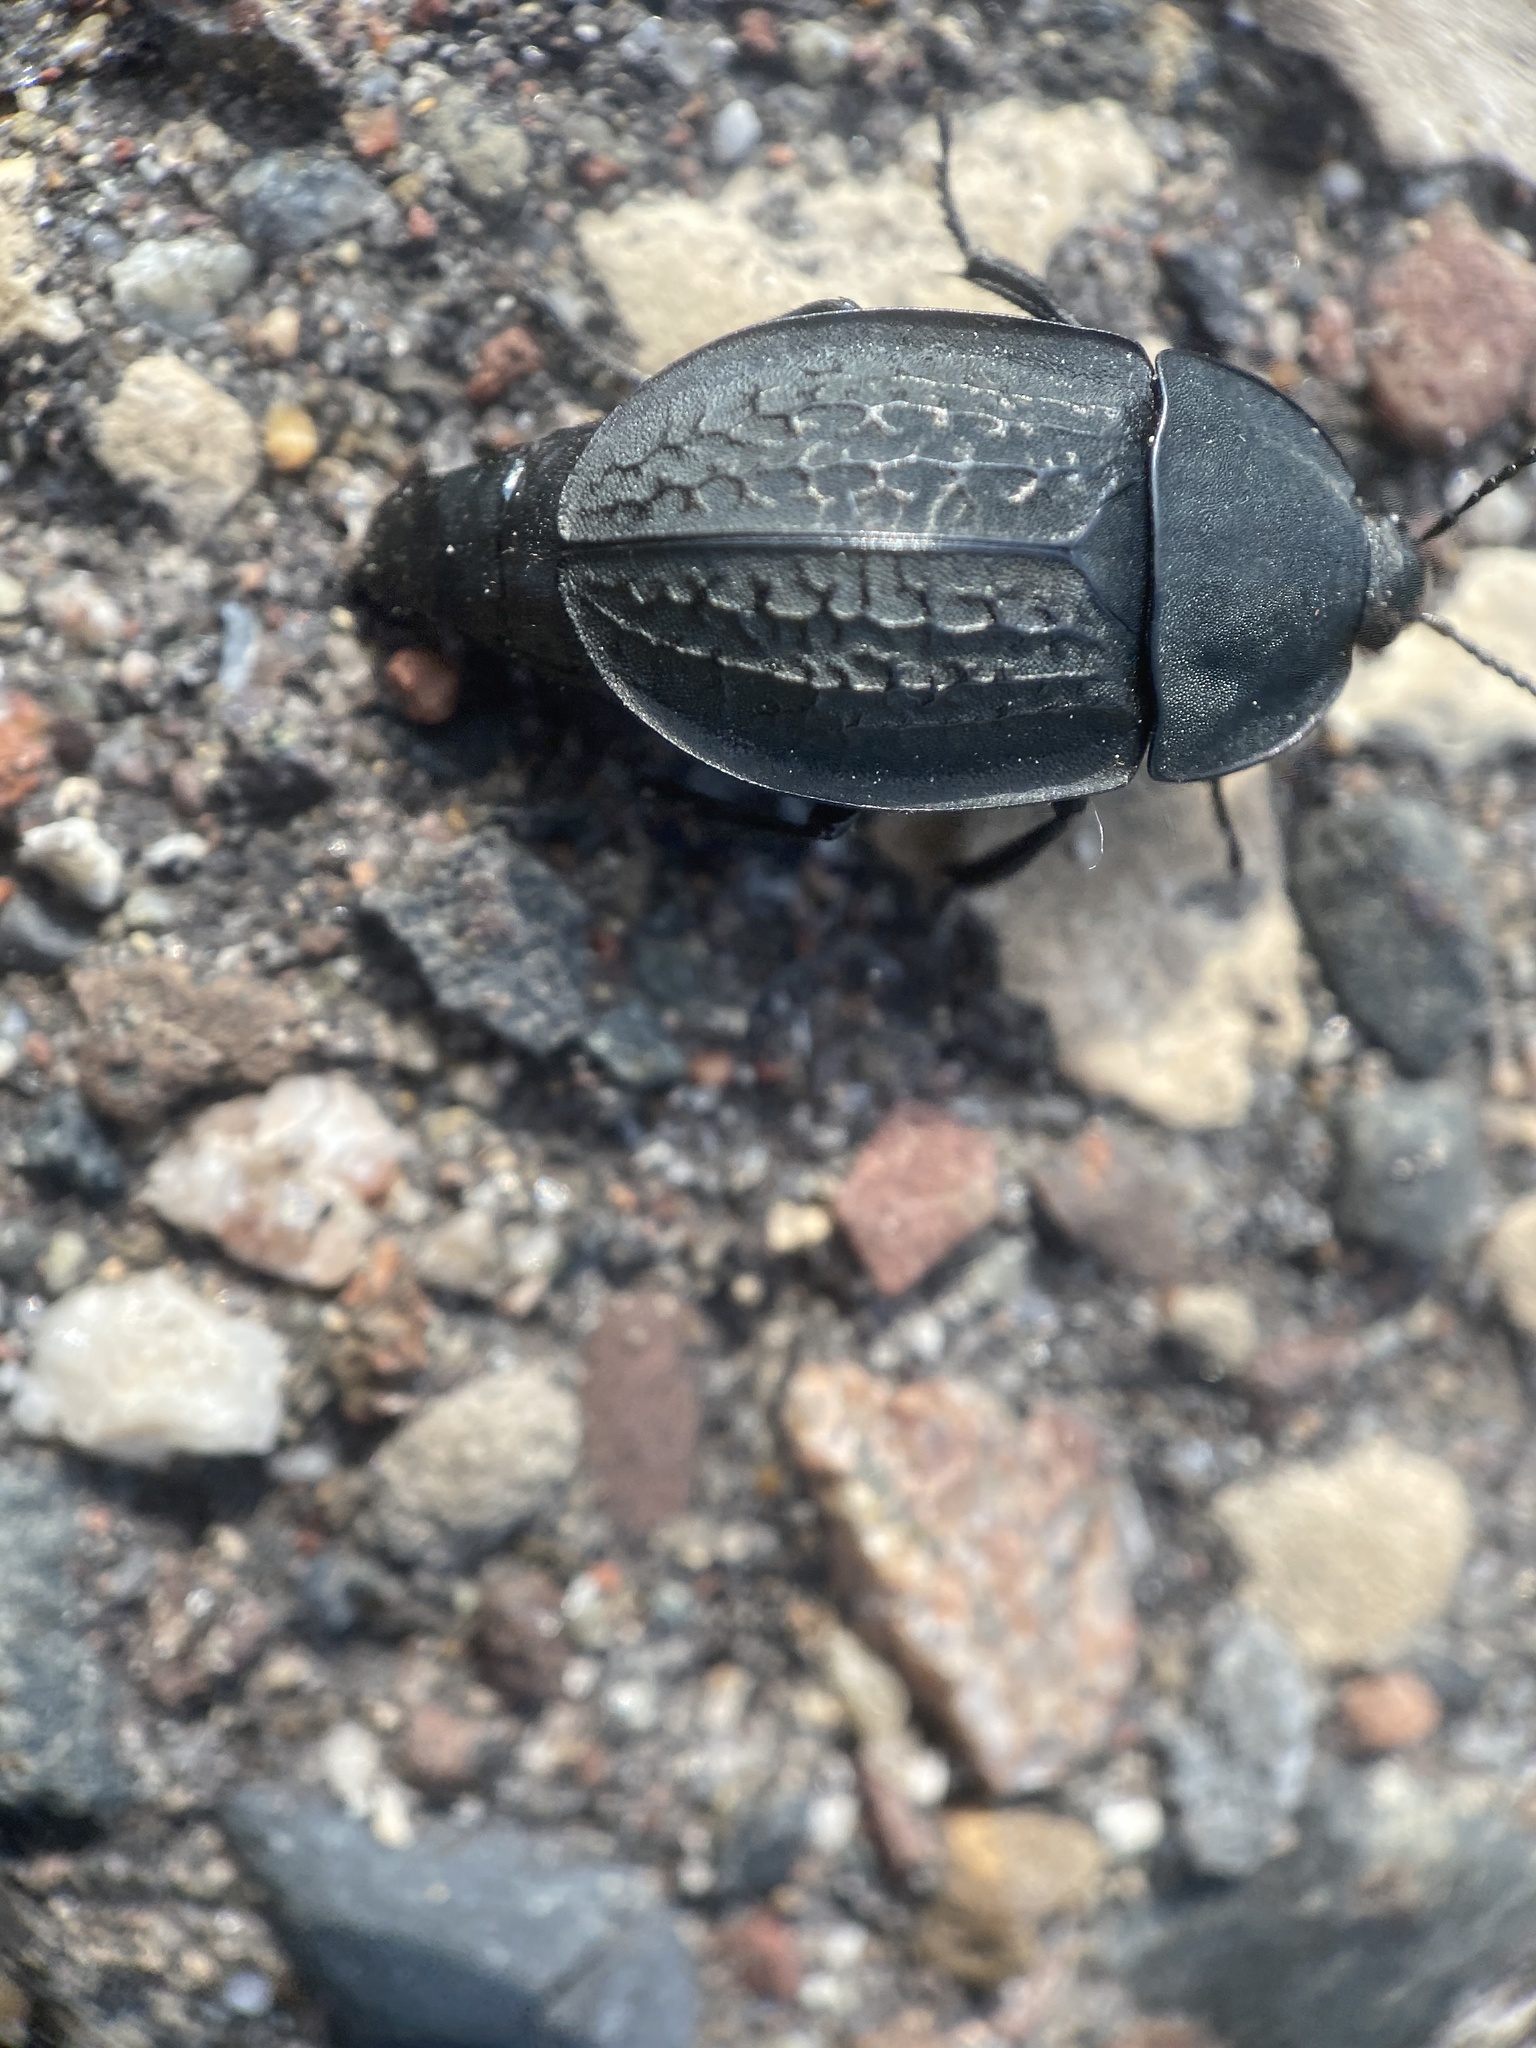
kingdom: Animalia
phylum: Arthropoda
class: Insecta
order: Coleoptera
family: Staphylinidae
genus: Heterosilpha
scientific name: Heterosilpha ramosa
